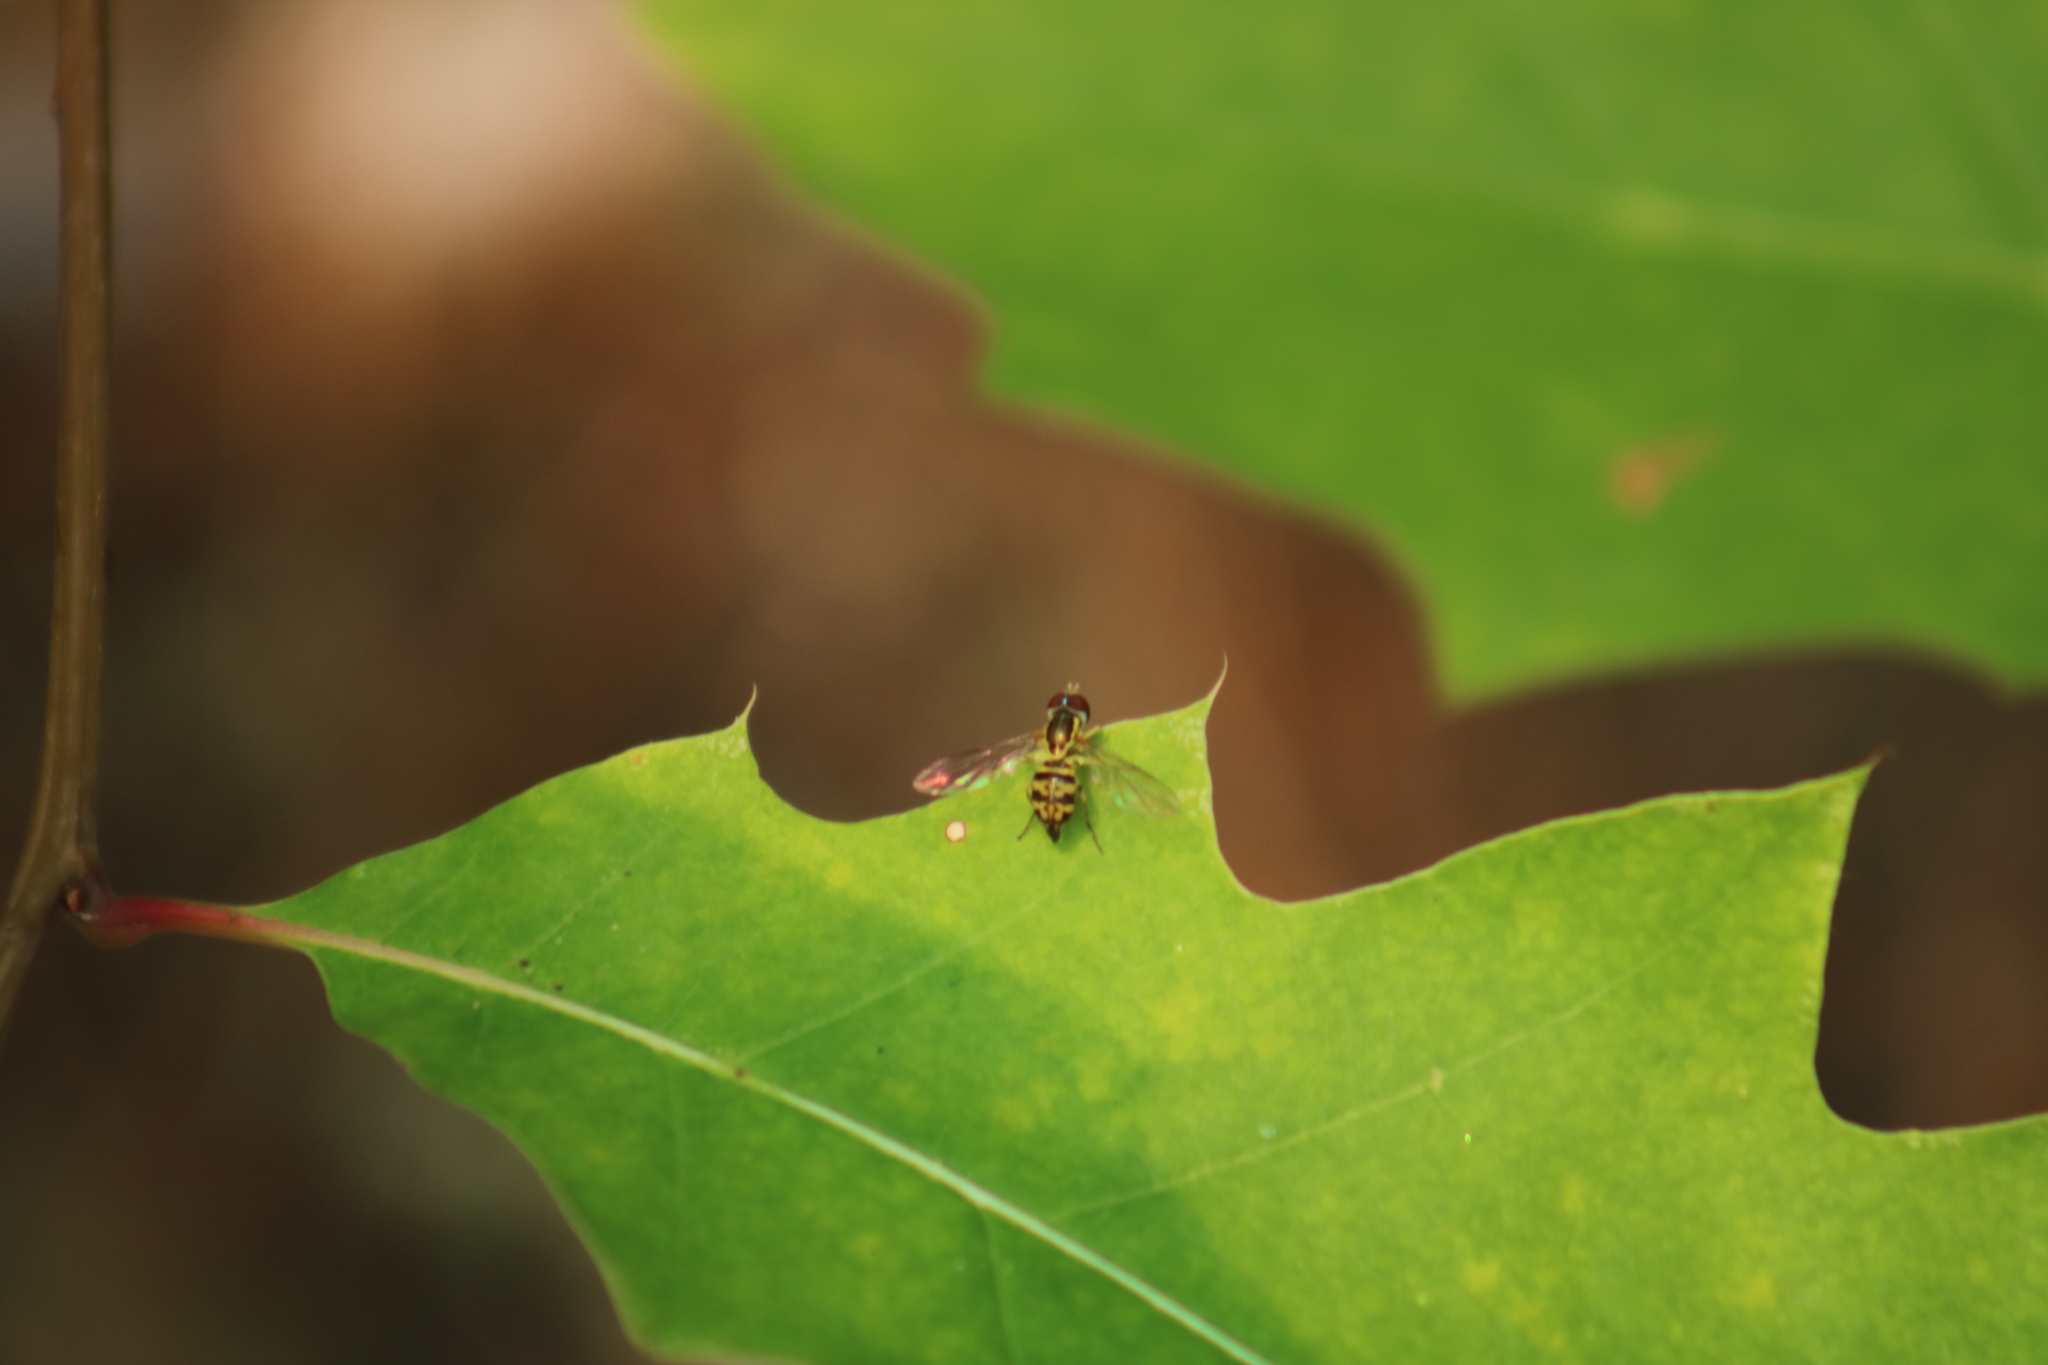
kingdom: Animalia
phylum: Arthropoda
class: Insecta
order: Diptera
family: Syrphidae
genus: Toxomerus
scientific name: Toxomerus geminatus
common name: Eastern calligrapher
